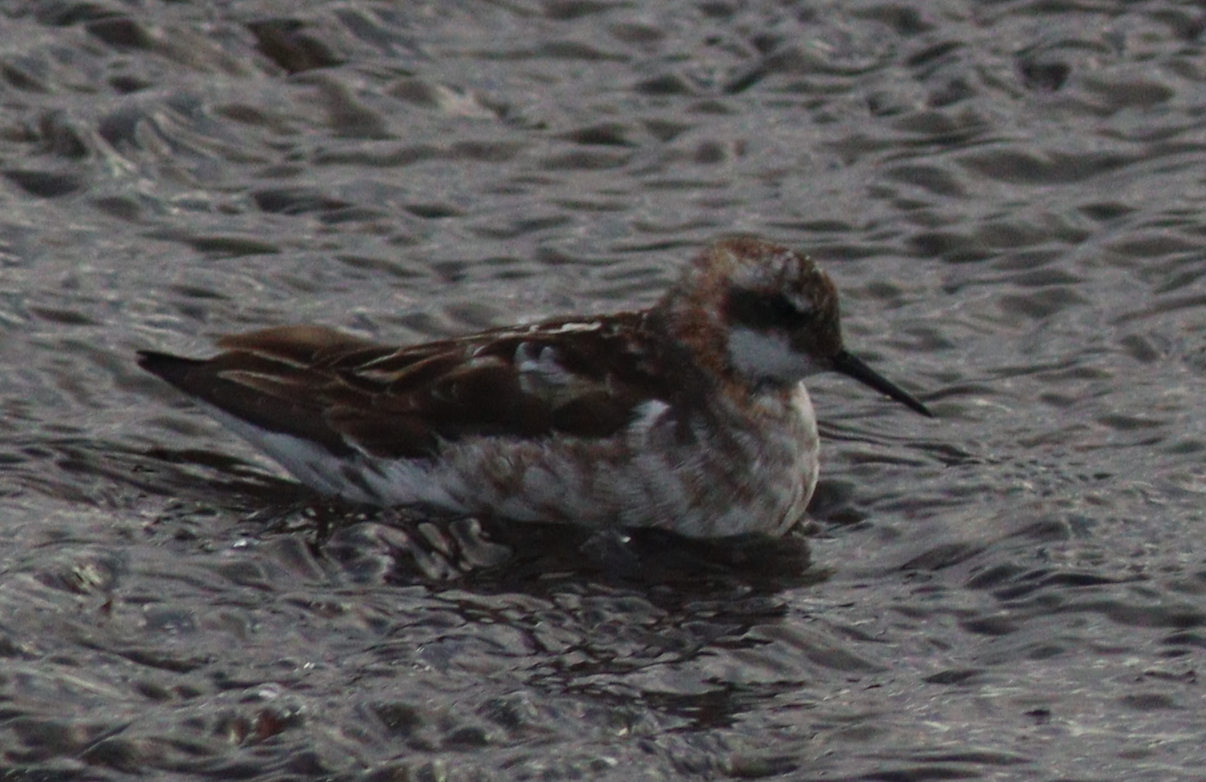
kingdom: Animalia
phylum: Chordata
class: Aves
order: Charadriiformes
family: Scolopacidae
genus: Phalaropus
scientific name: Phalaropus lobatus
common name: Red-necked phalarope
